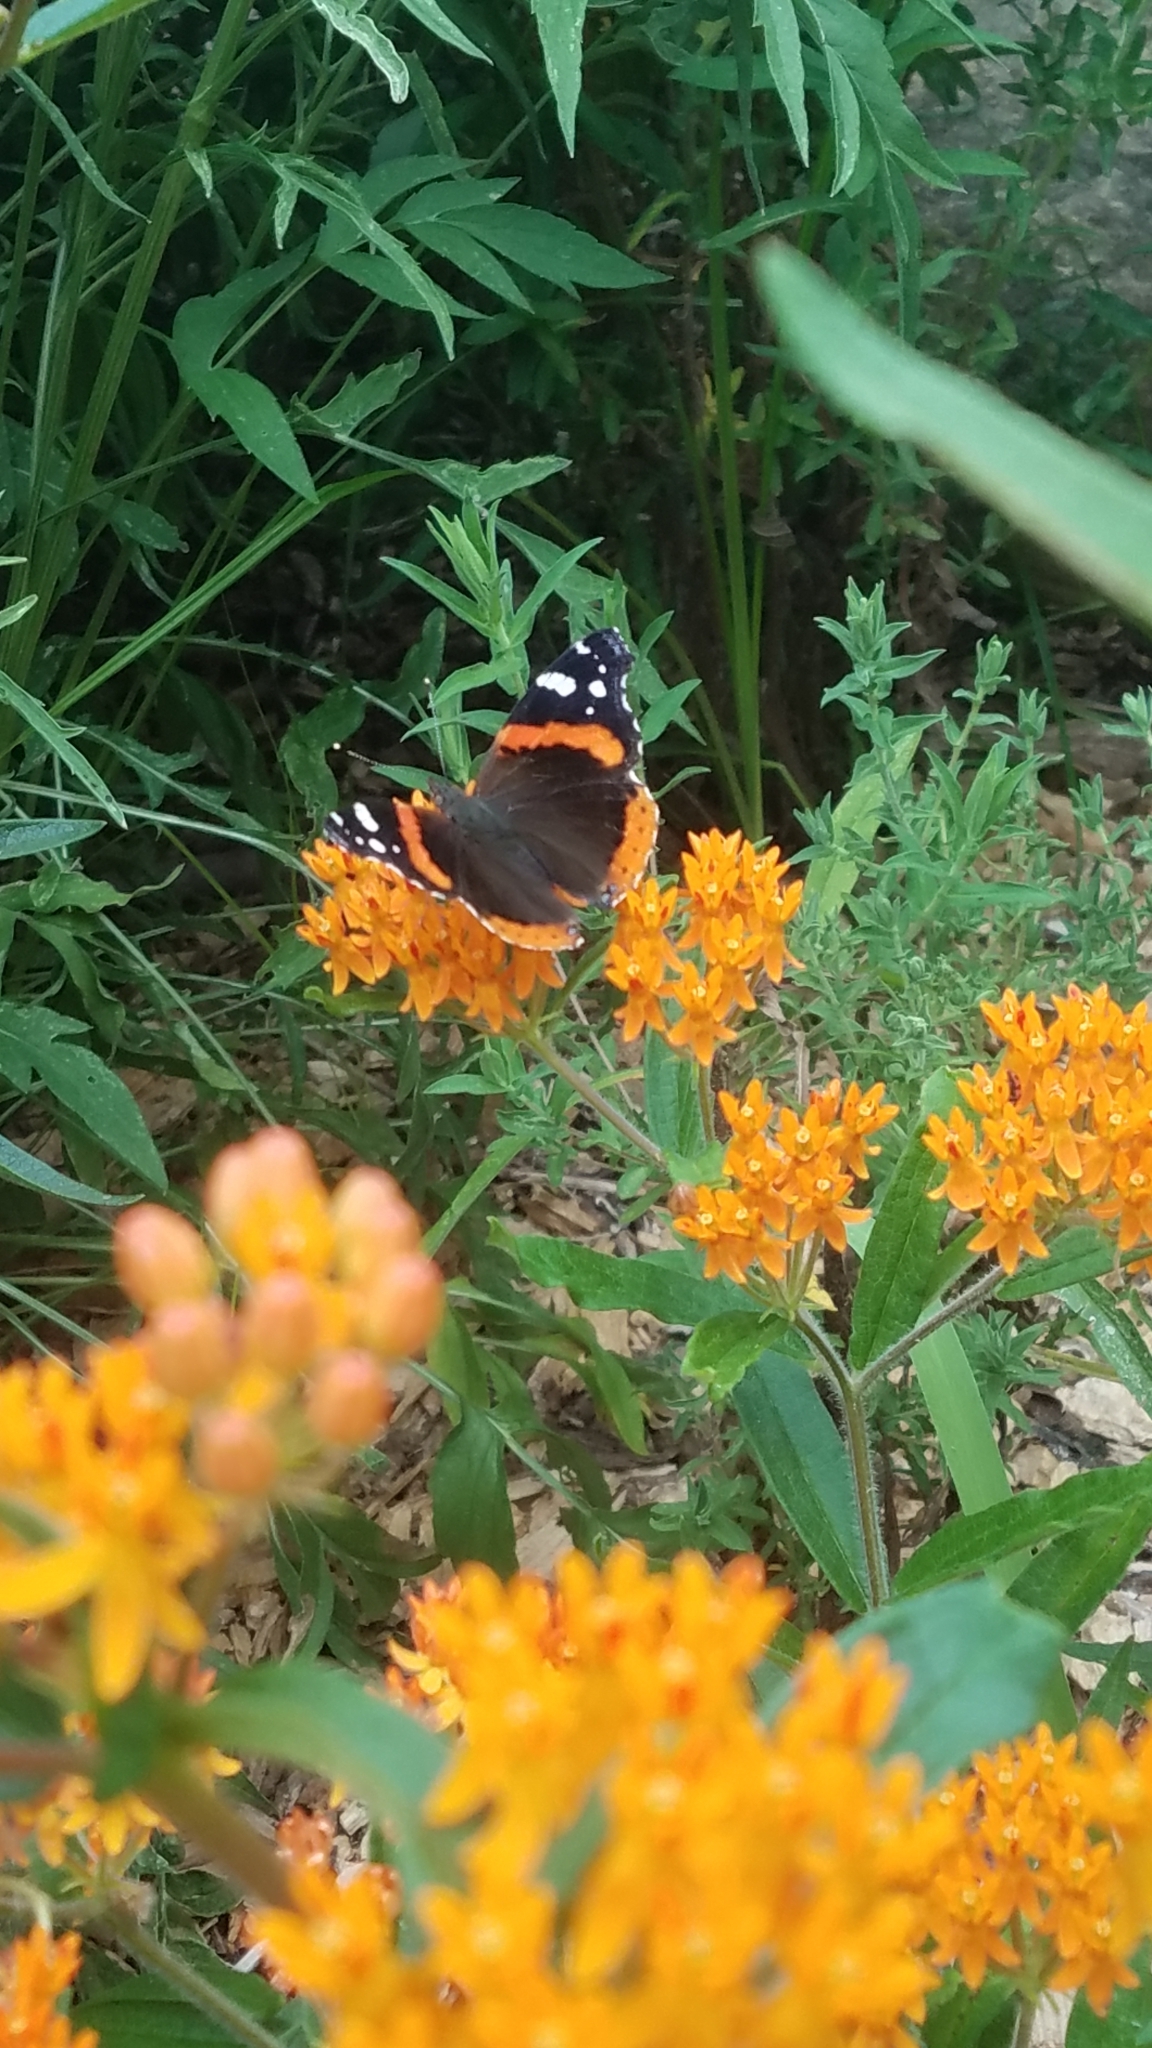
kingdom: Animalia
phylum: Arthropoda
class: Insecta
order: Lepidoptera
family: Nymphalidae
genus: Vanessa
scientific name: Vanessa atalanta
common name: Red admiral
